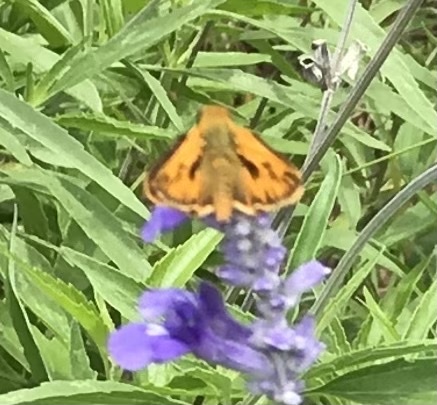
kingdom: Animalia
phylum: Arthropoda
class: Insecta
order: Lepidoptera
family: Hesperiidae
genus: Hylephila
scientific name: Hylephila phyleus
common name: Fiery skipper
